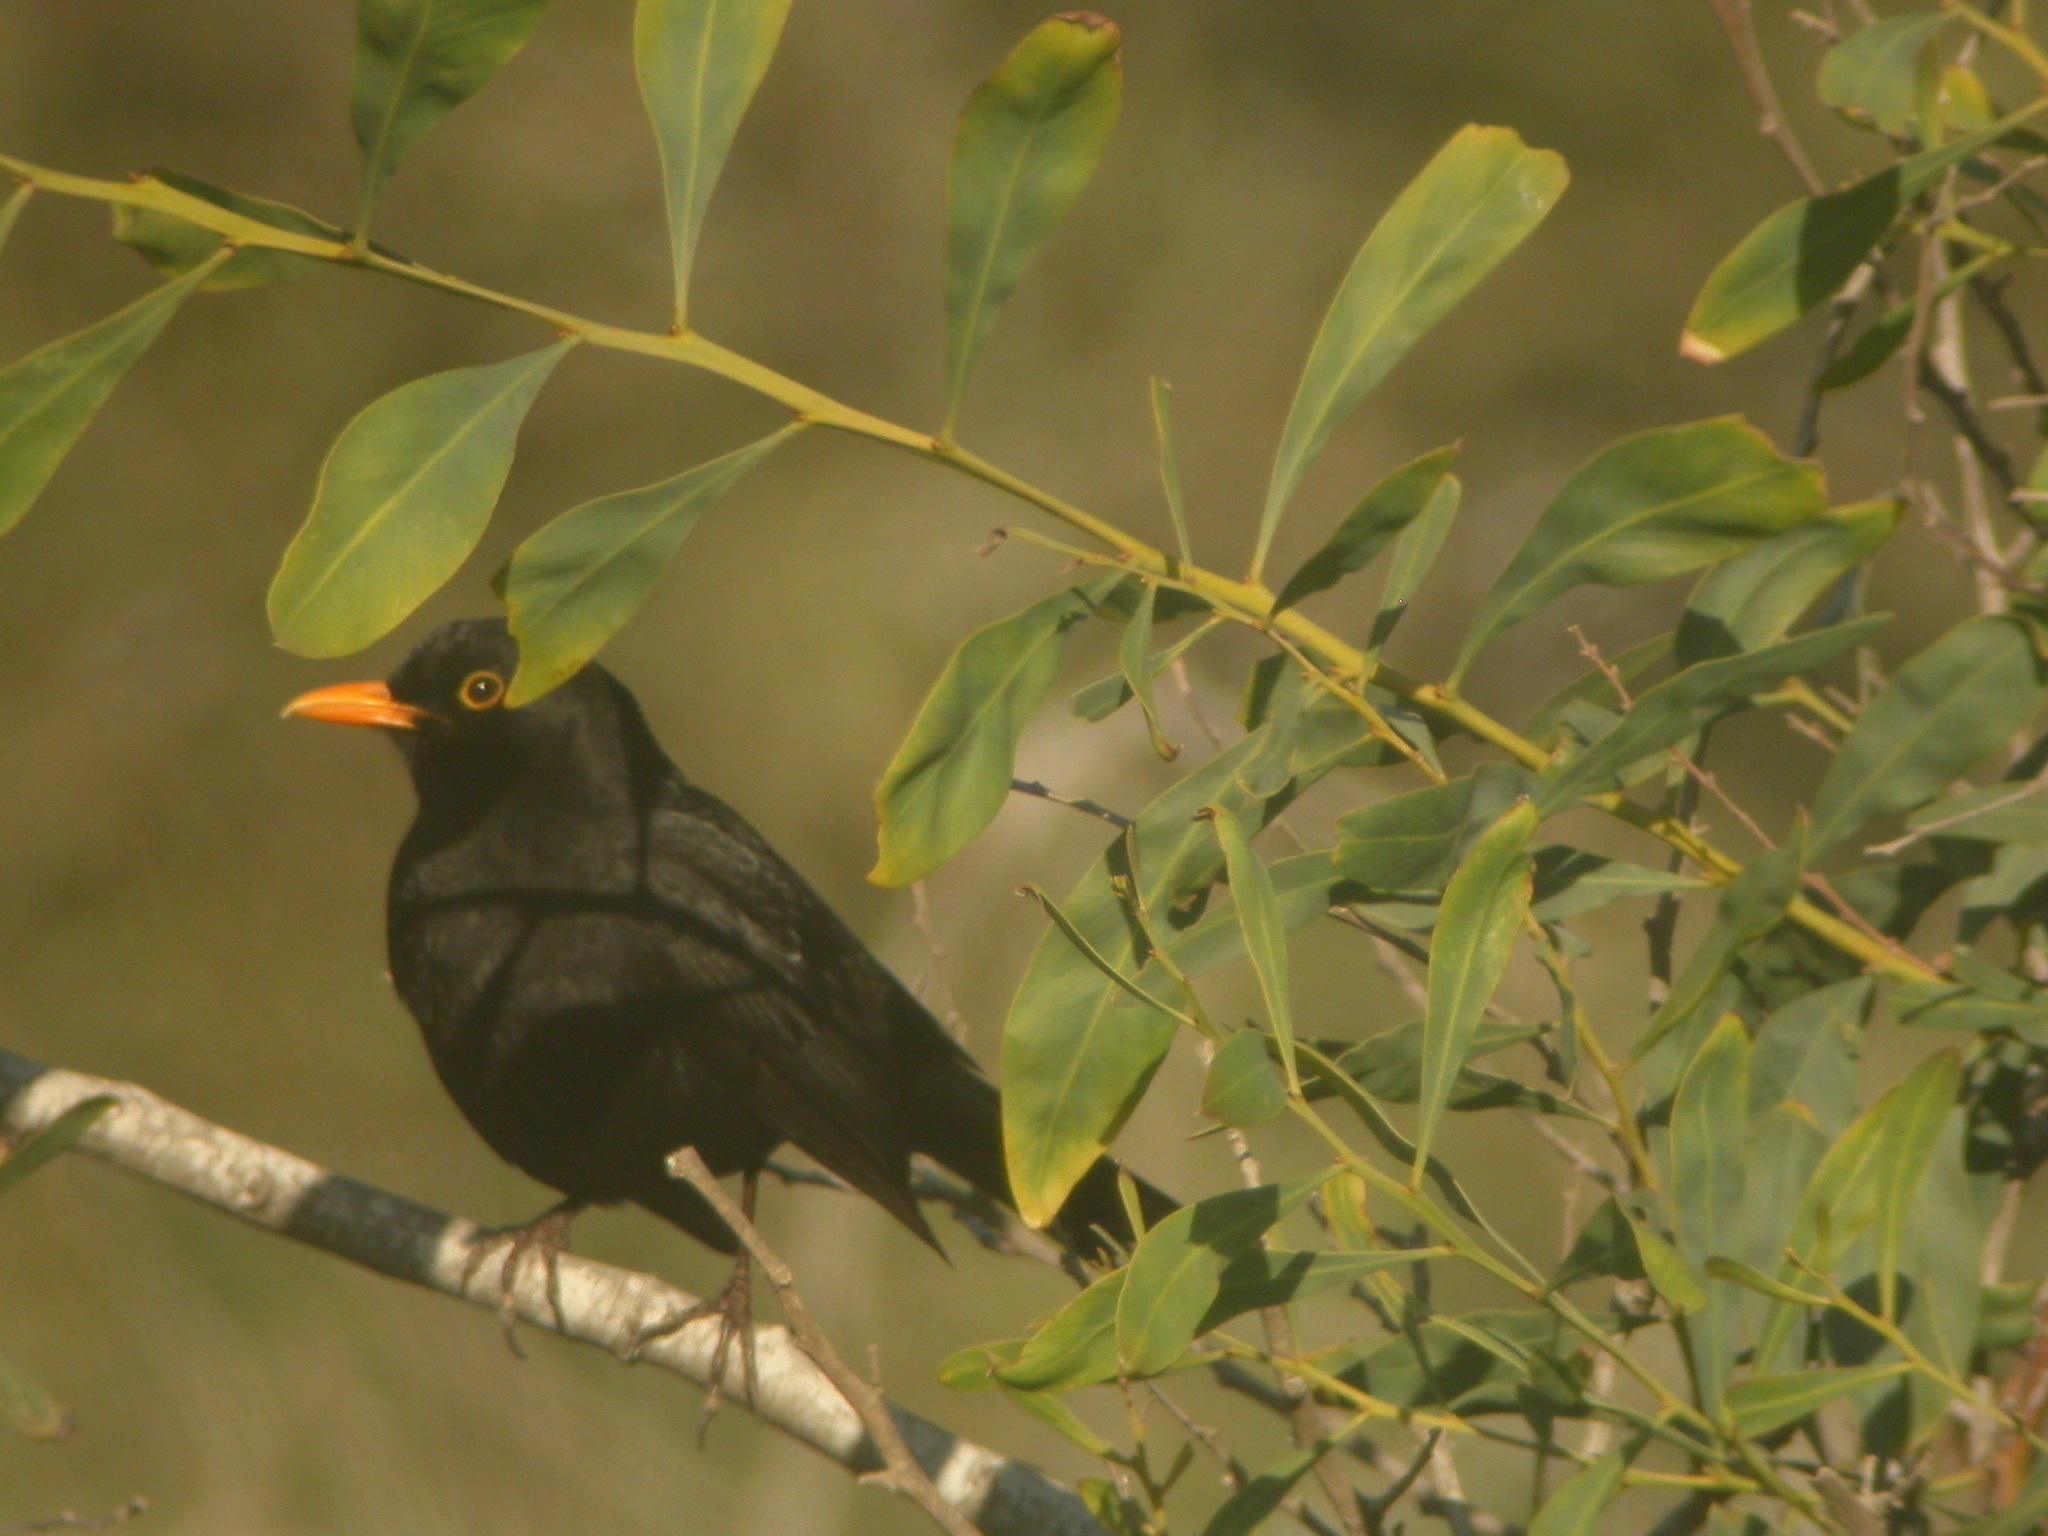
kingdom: Animalia
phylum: Chordata
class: Aves
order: Passeriformes
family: Turdidae
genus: Turdus
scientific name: Turdus merula
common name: Common blackbird
